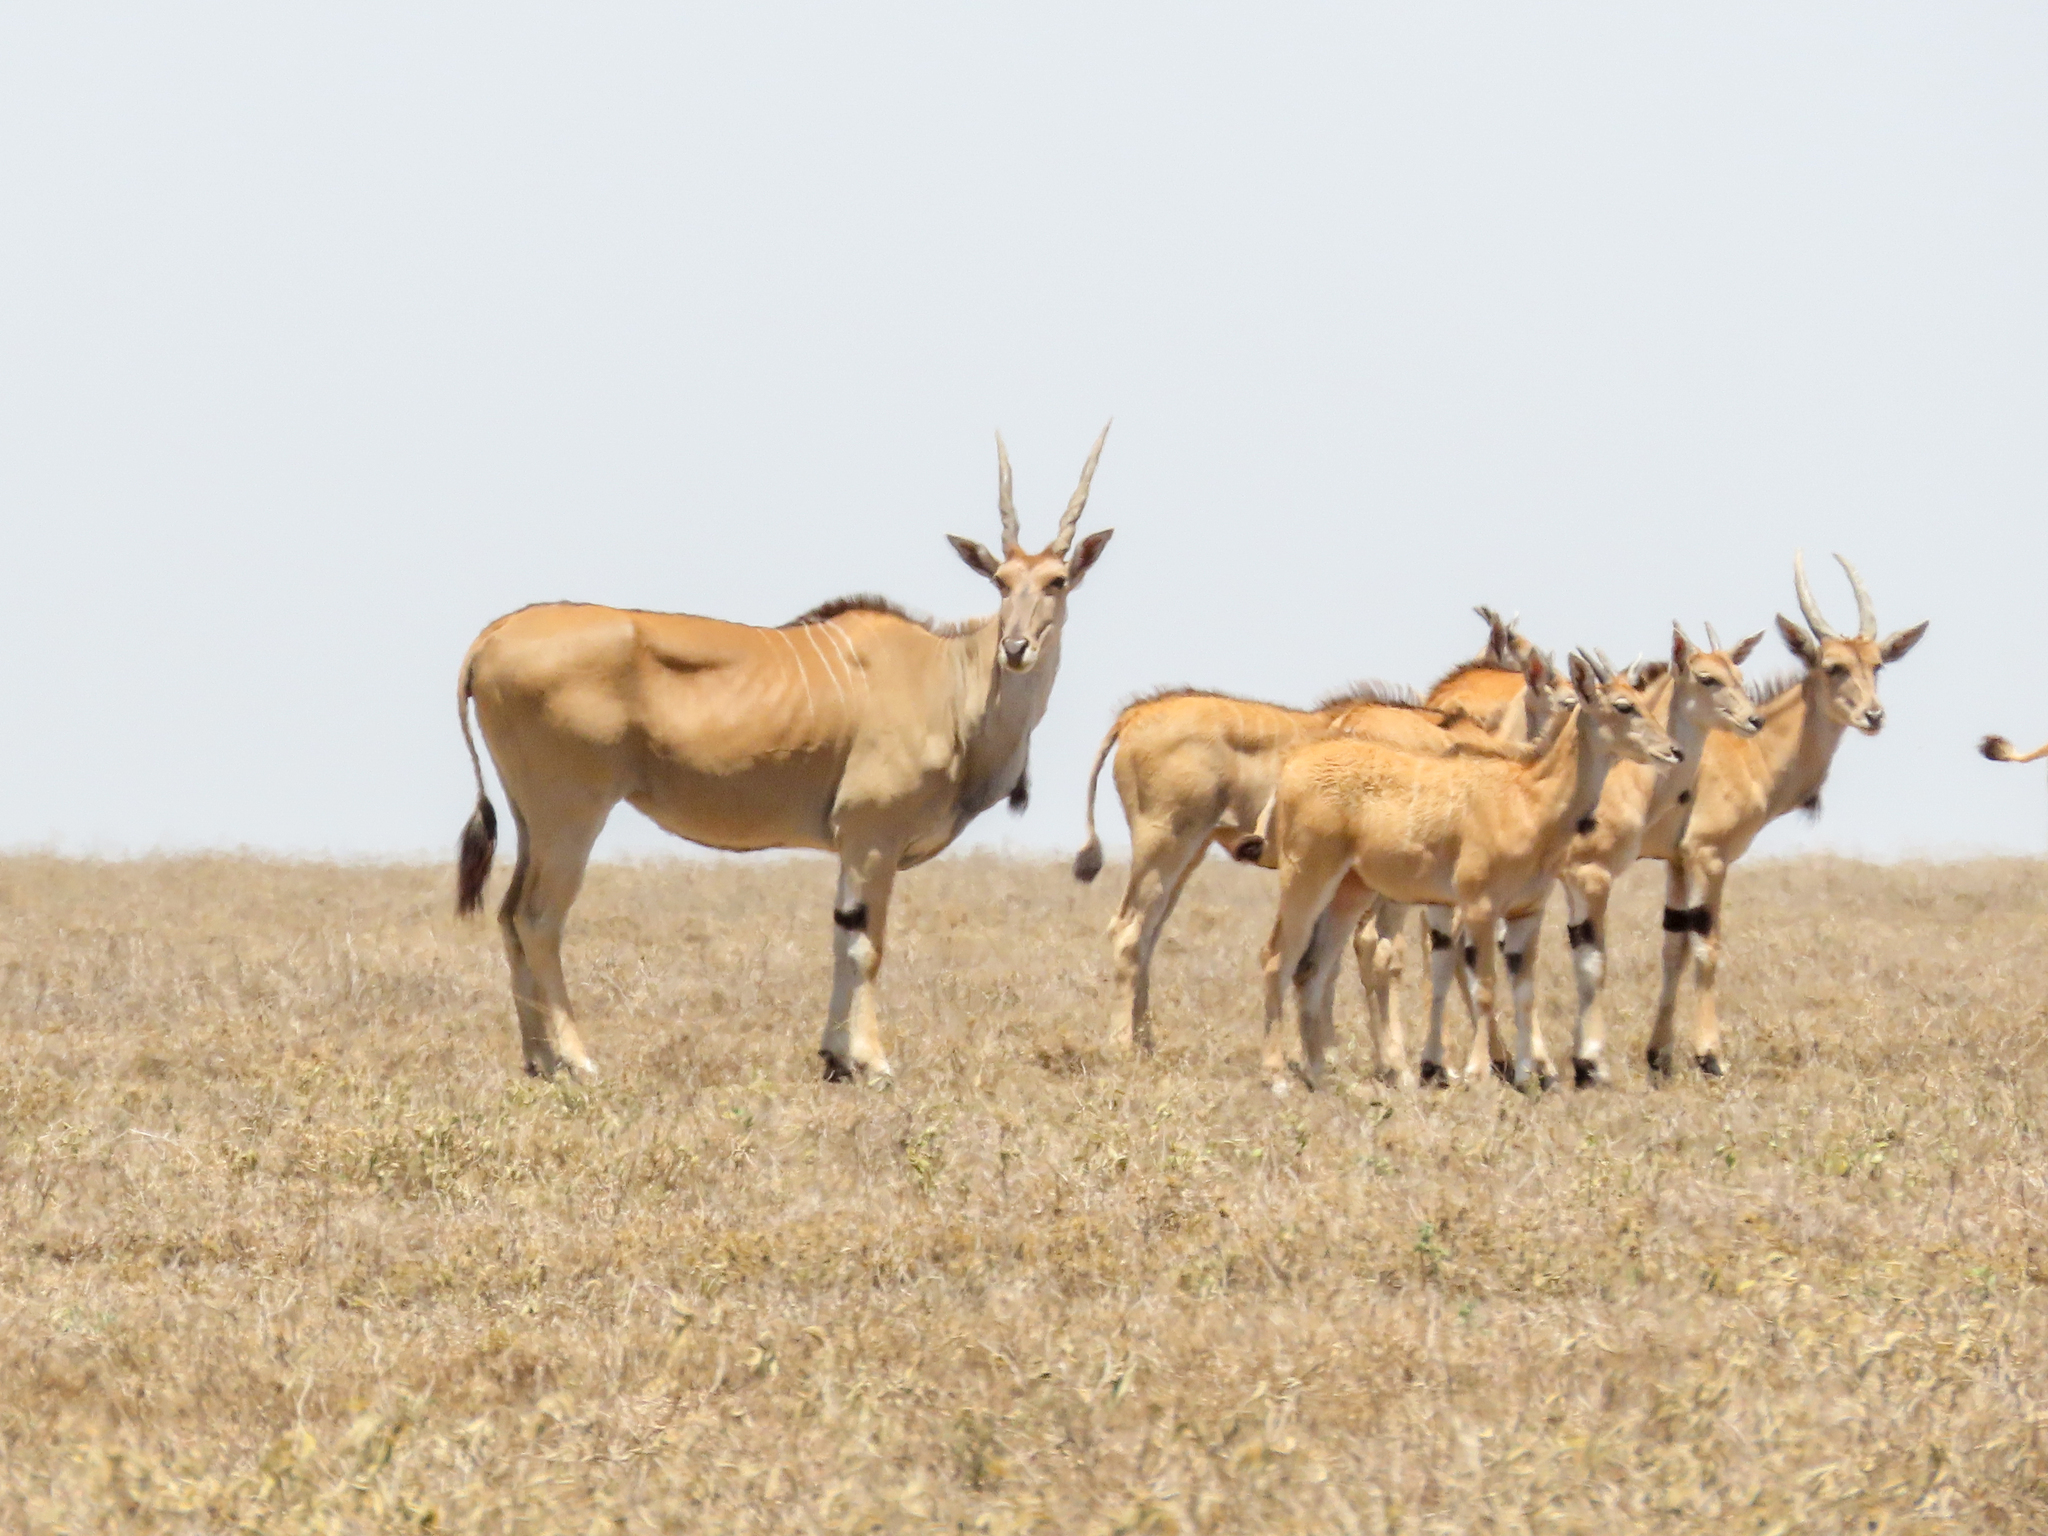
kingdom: Animalia
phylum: Chordata
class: Mammalia
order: Artiodactyla
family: Bovidae
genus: Taurotragus
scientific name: Taurotragus oryx
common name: Common eland
